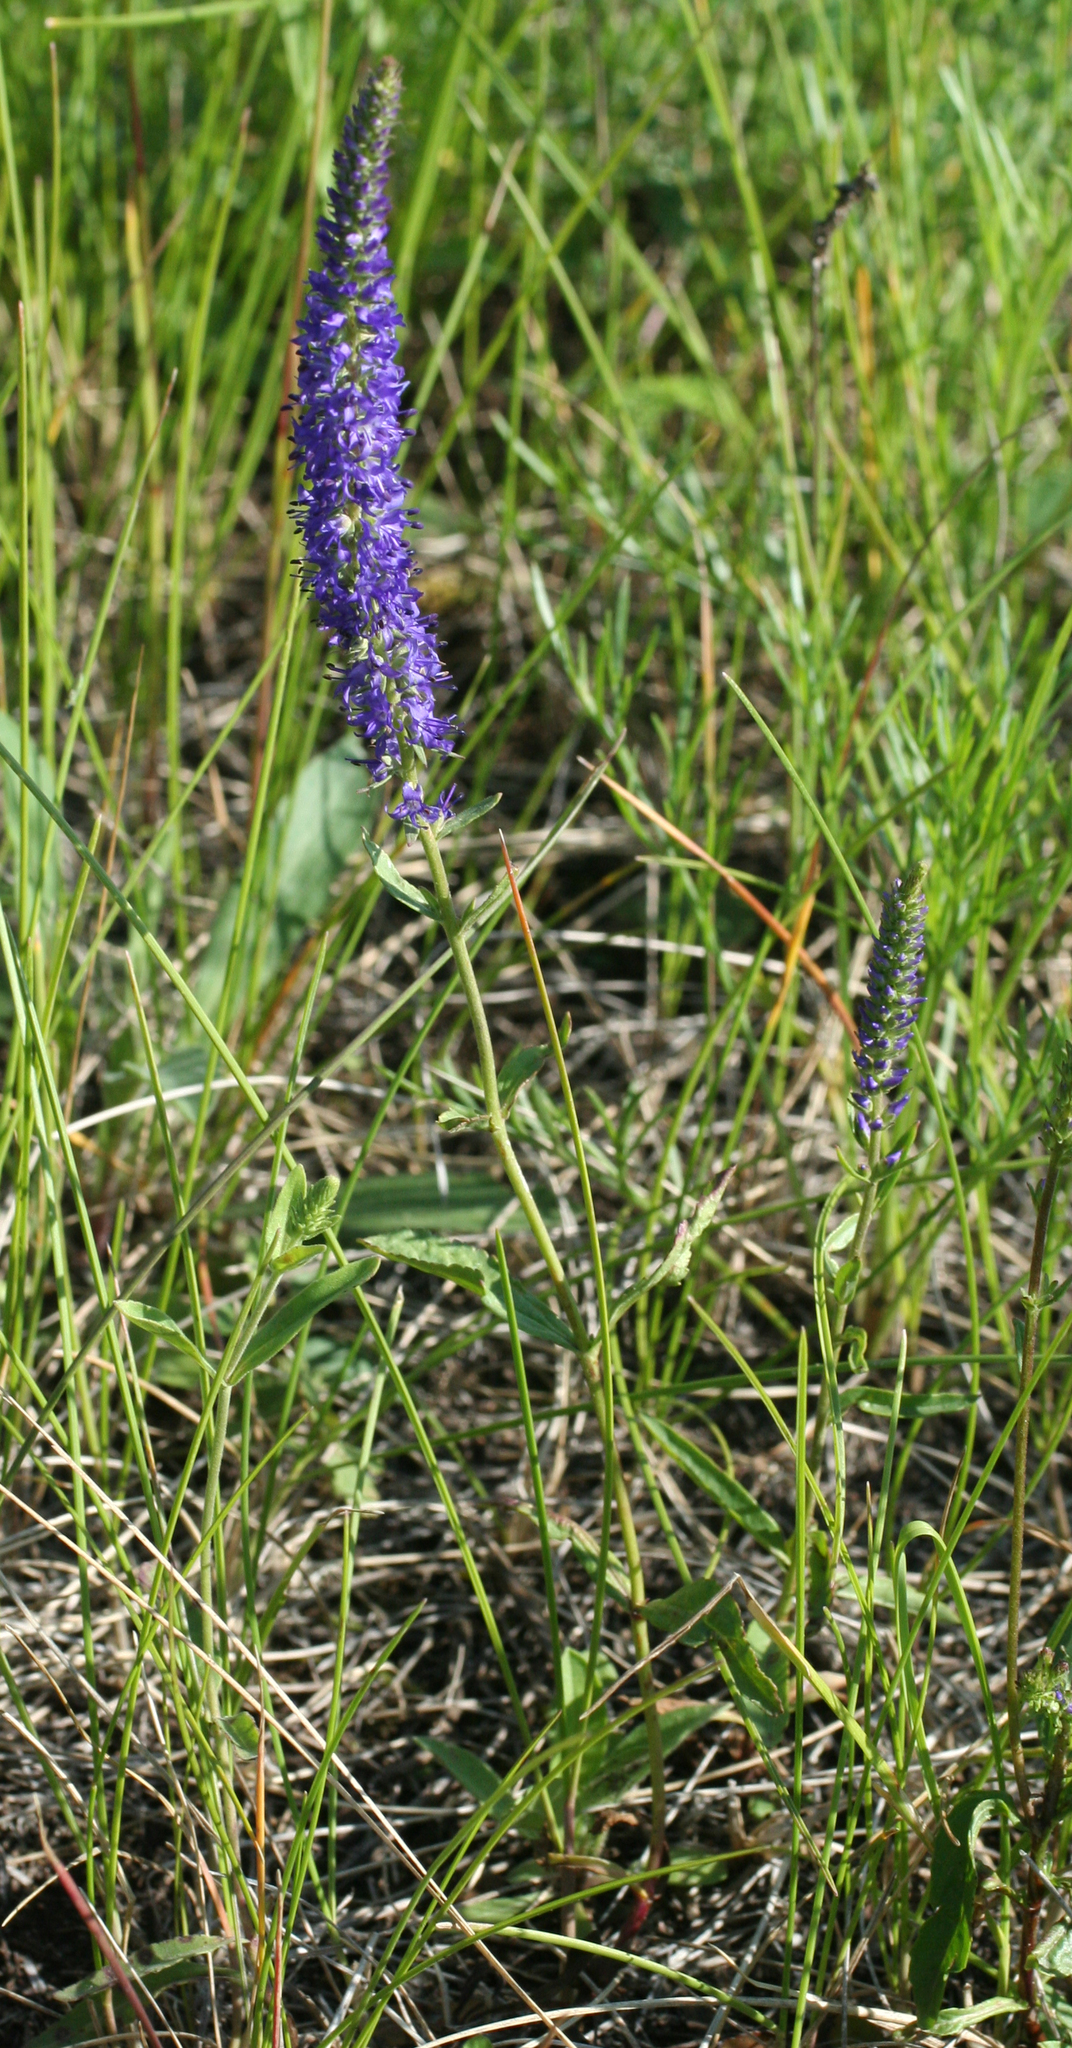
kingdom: Plantae
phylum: Tracheophyta
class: Magnoliopsida
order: Lamiales
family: Plantaginaceae
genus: Veronica
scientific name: Veronica spicata
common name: Spiked speedwell
